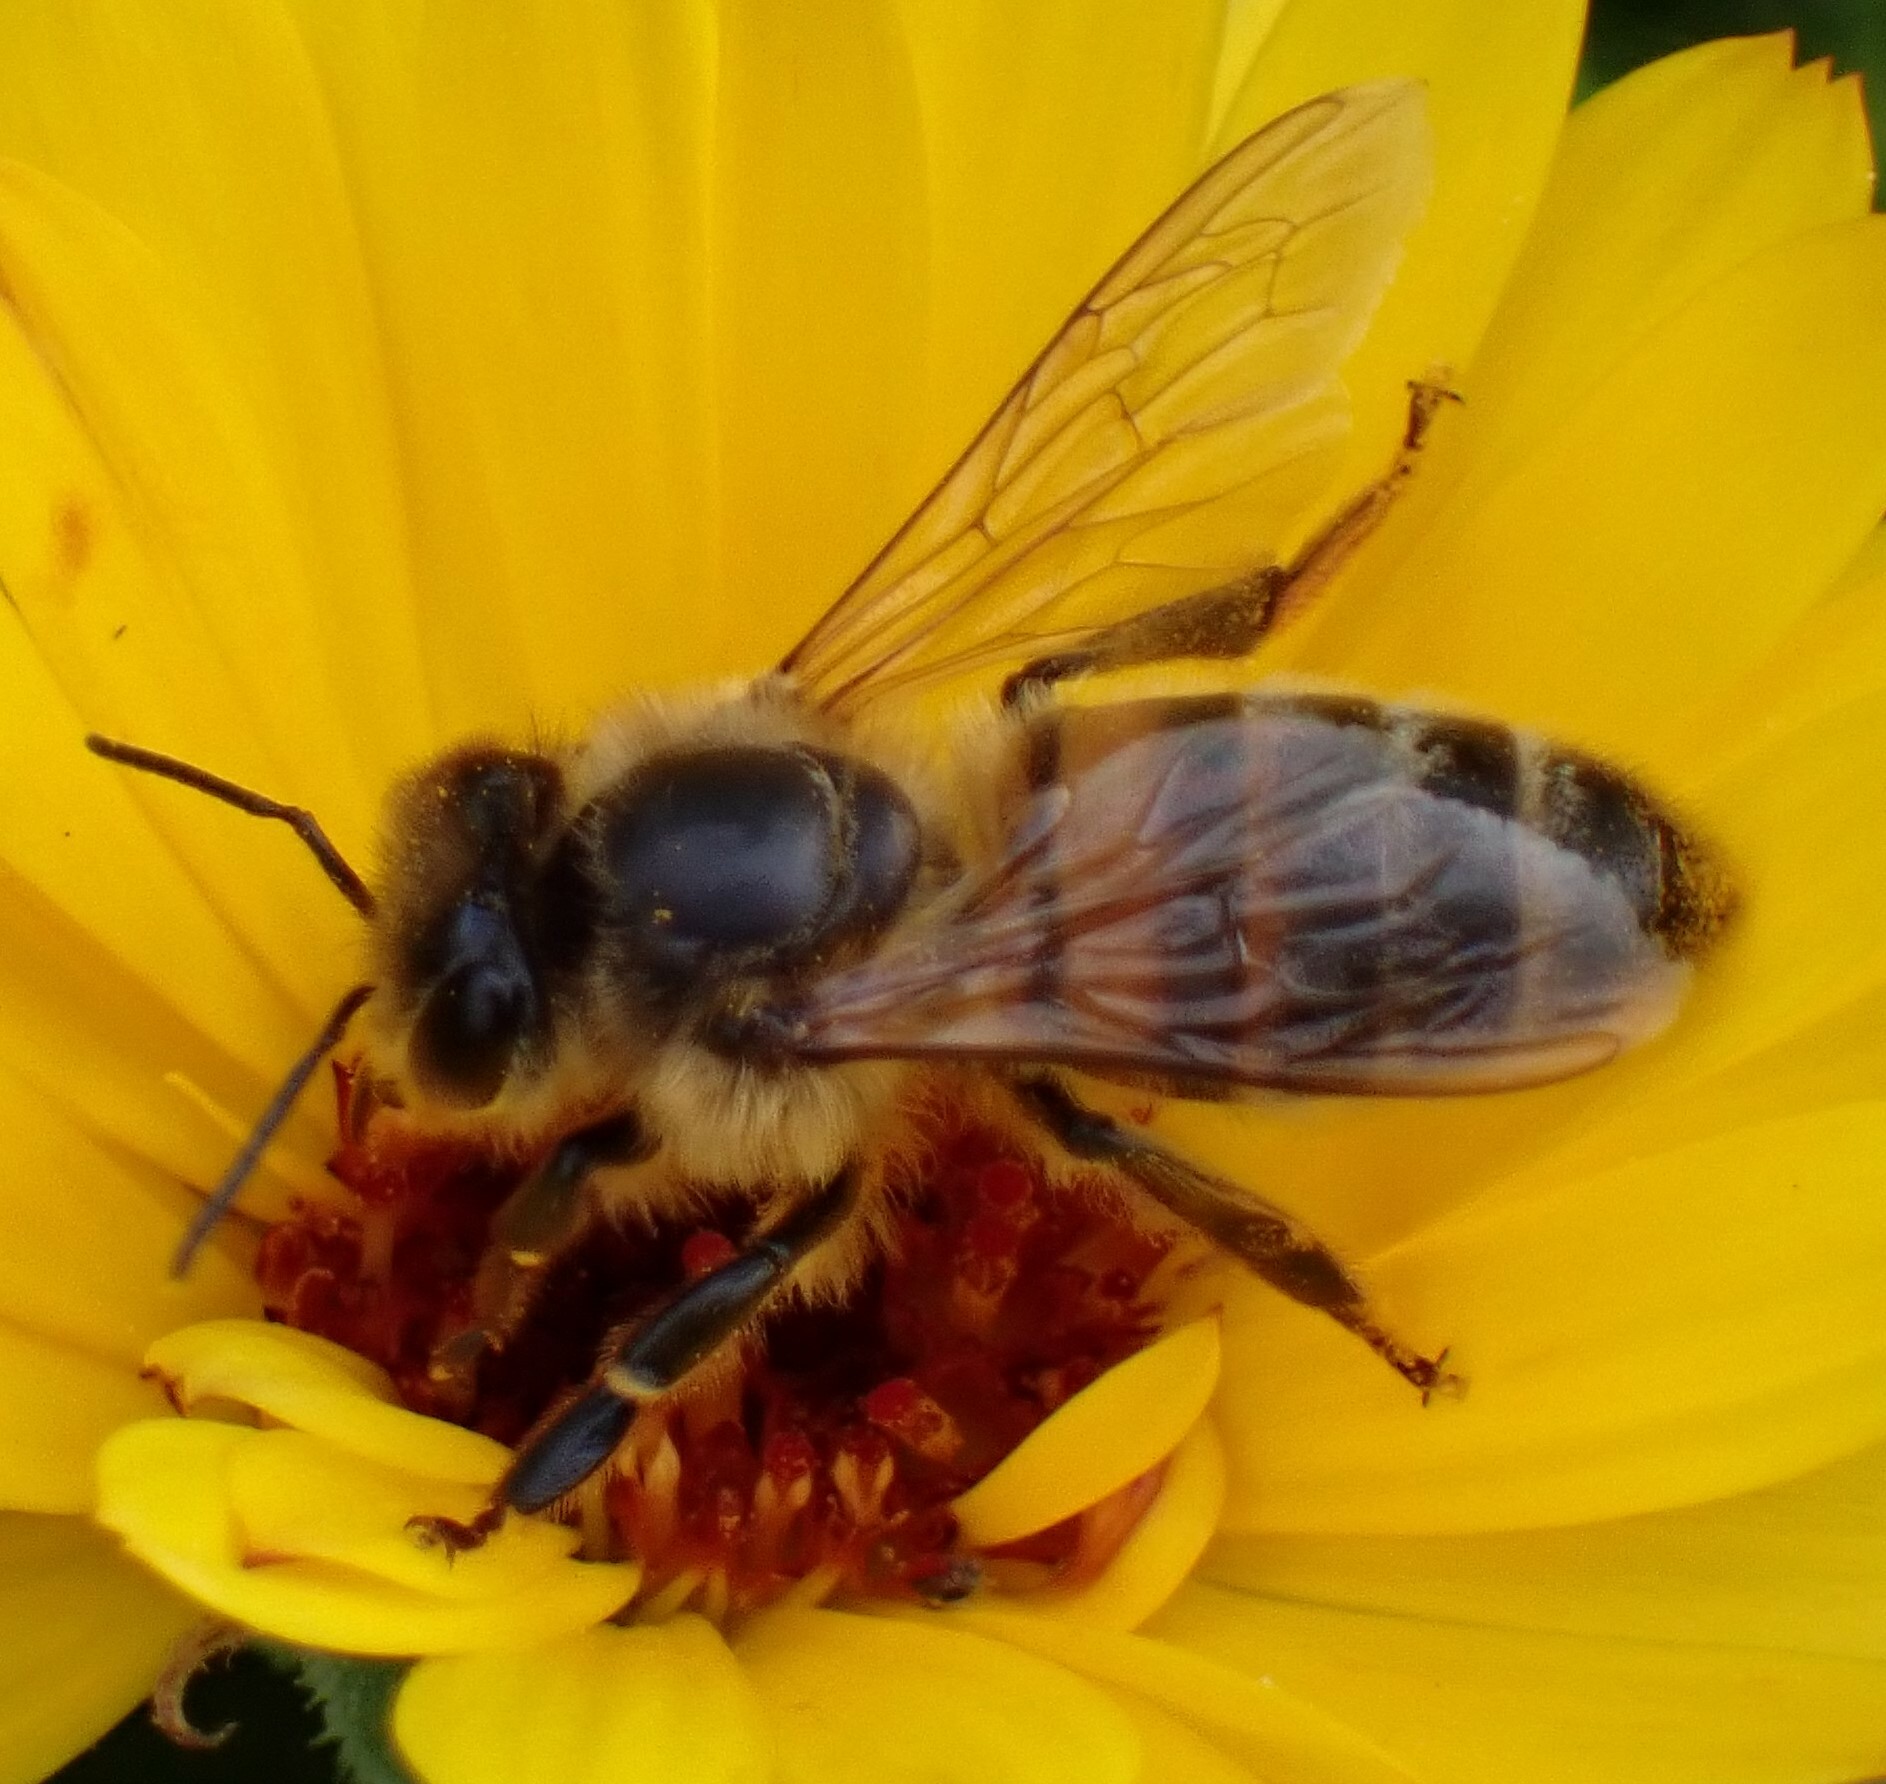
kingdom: Animalia
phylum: Arthropoda
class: Insecta
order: Hymenoptera
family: Apidae
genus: Apis
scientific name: Apis mellifera
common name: Honey bee
